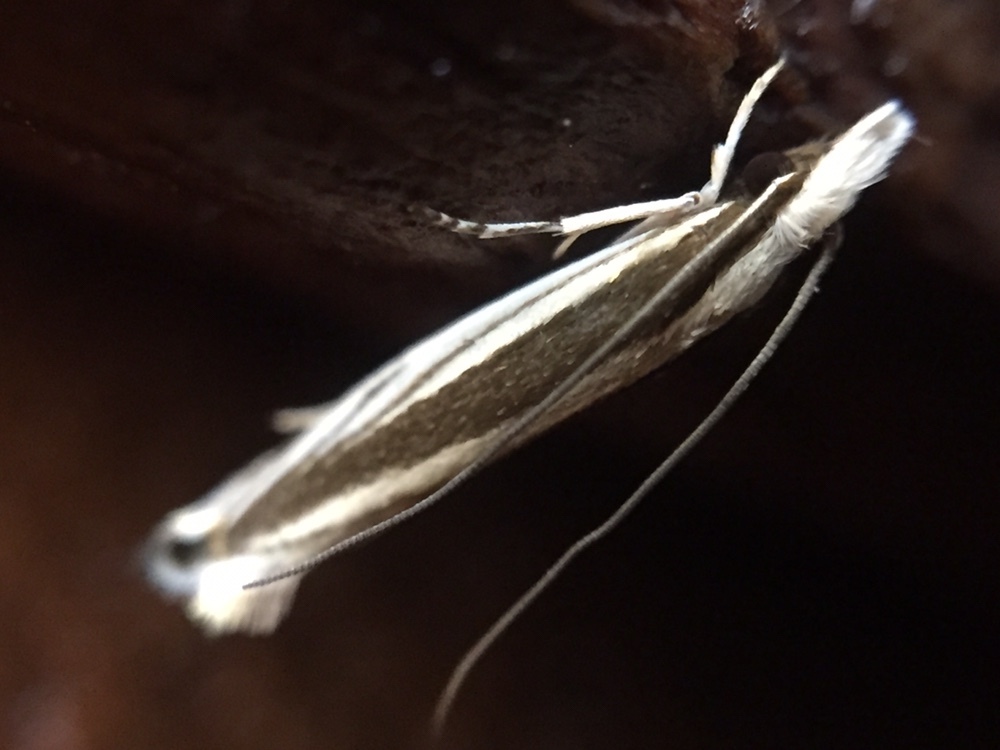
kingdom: Animalia
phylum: Arthropoda
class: Insecta
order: Lepidoptera
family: Tineidae
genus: Erechthias
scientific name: Erechthias stilbella
